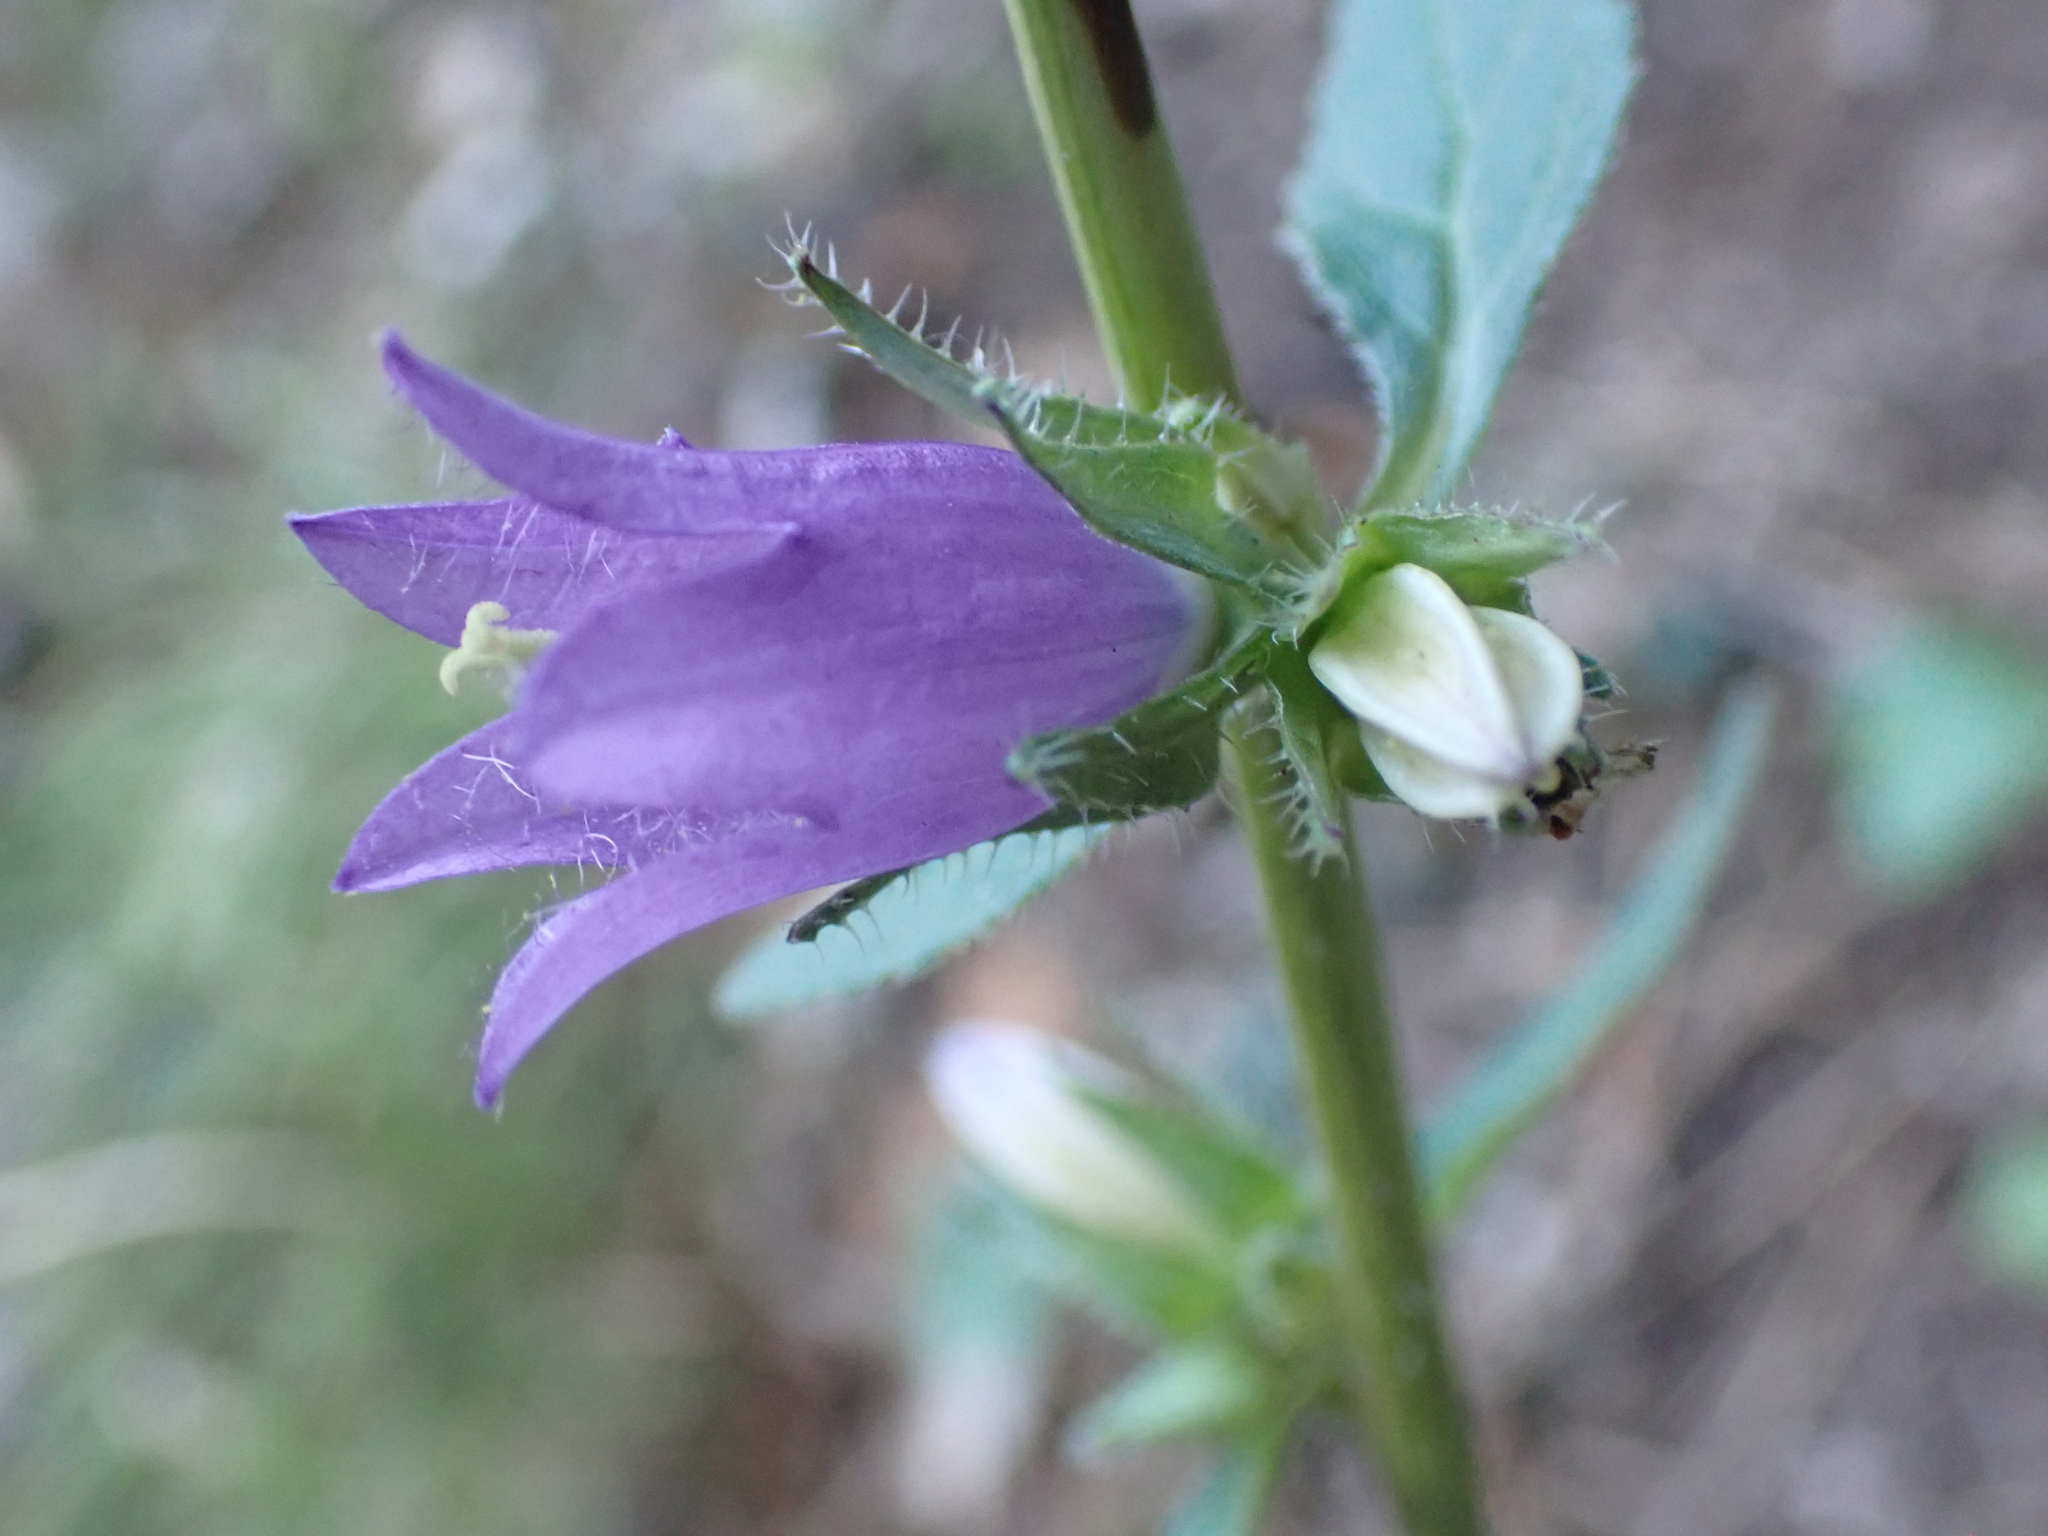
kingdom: Plantae
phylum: Tracheophyta
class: Magnoliopsida
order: Asterales
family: Campanulaceae
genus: Campanula
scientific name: Campanula trachelium
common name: Nettle-leaved bellflower
